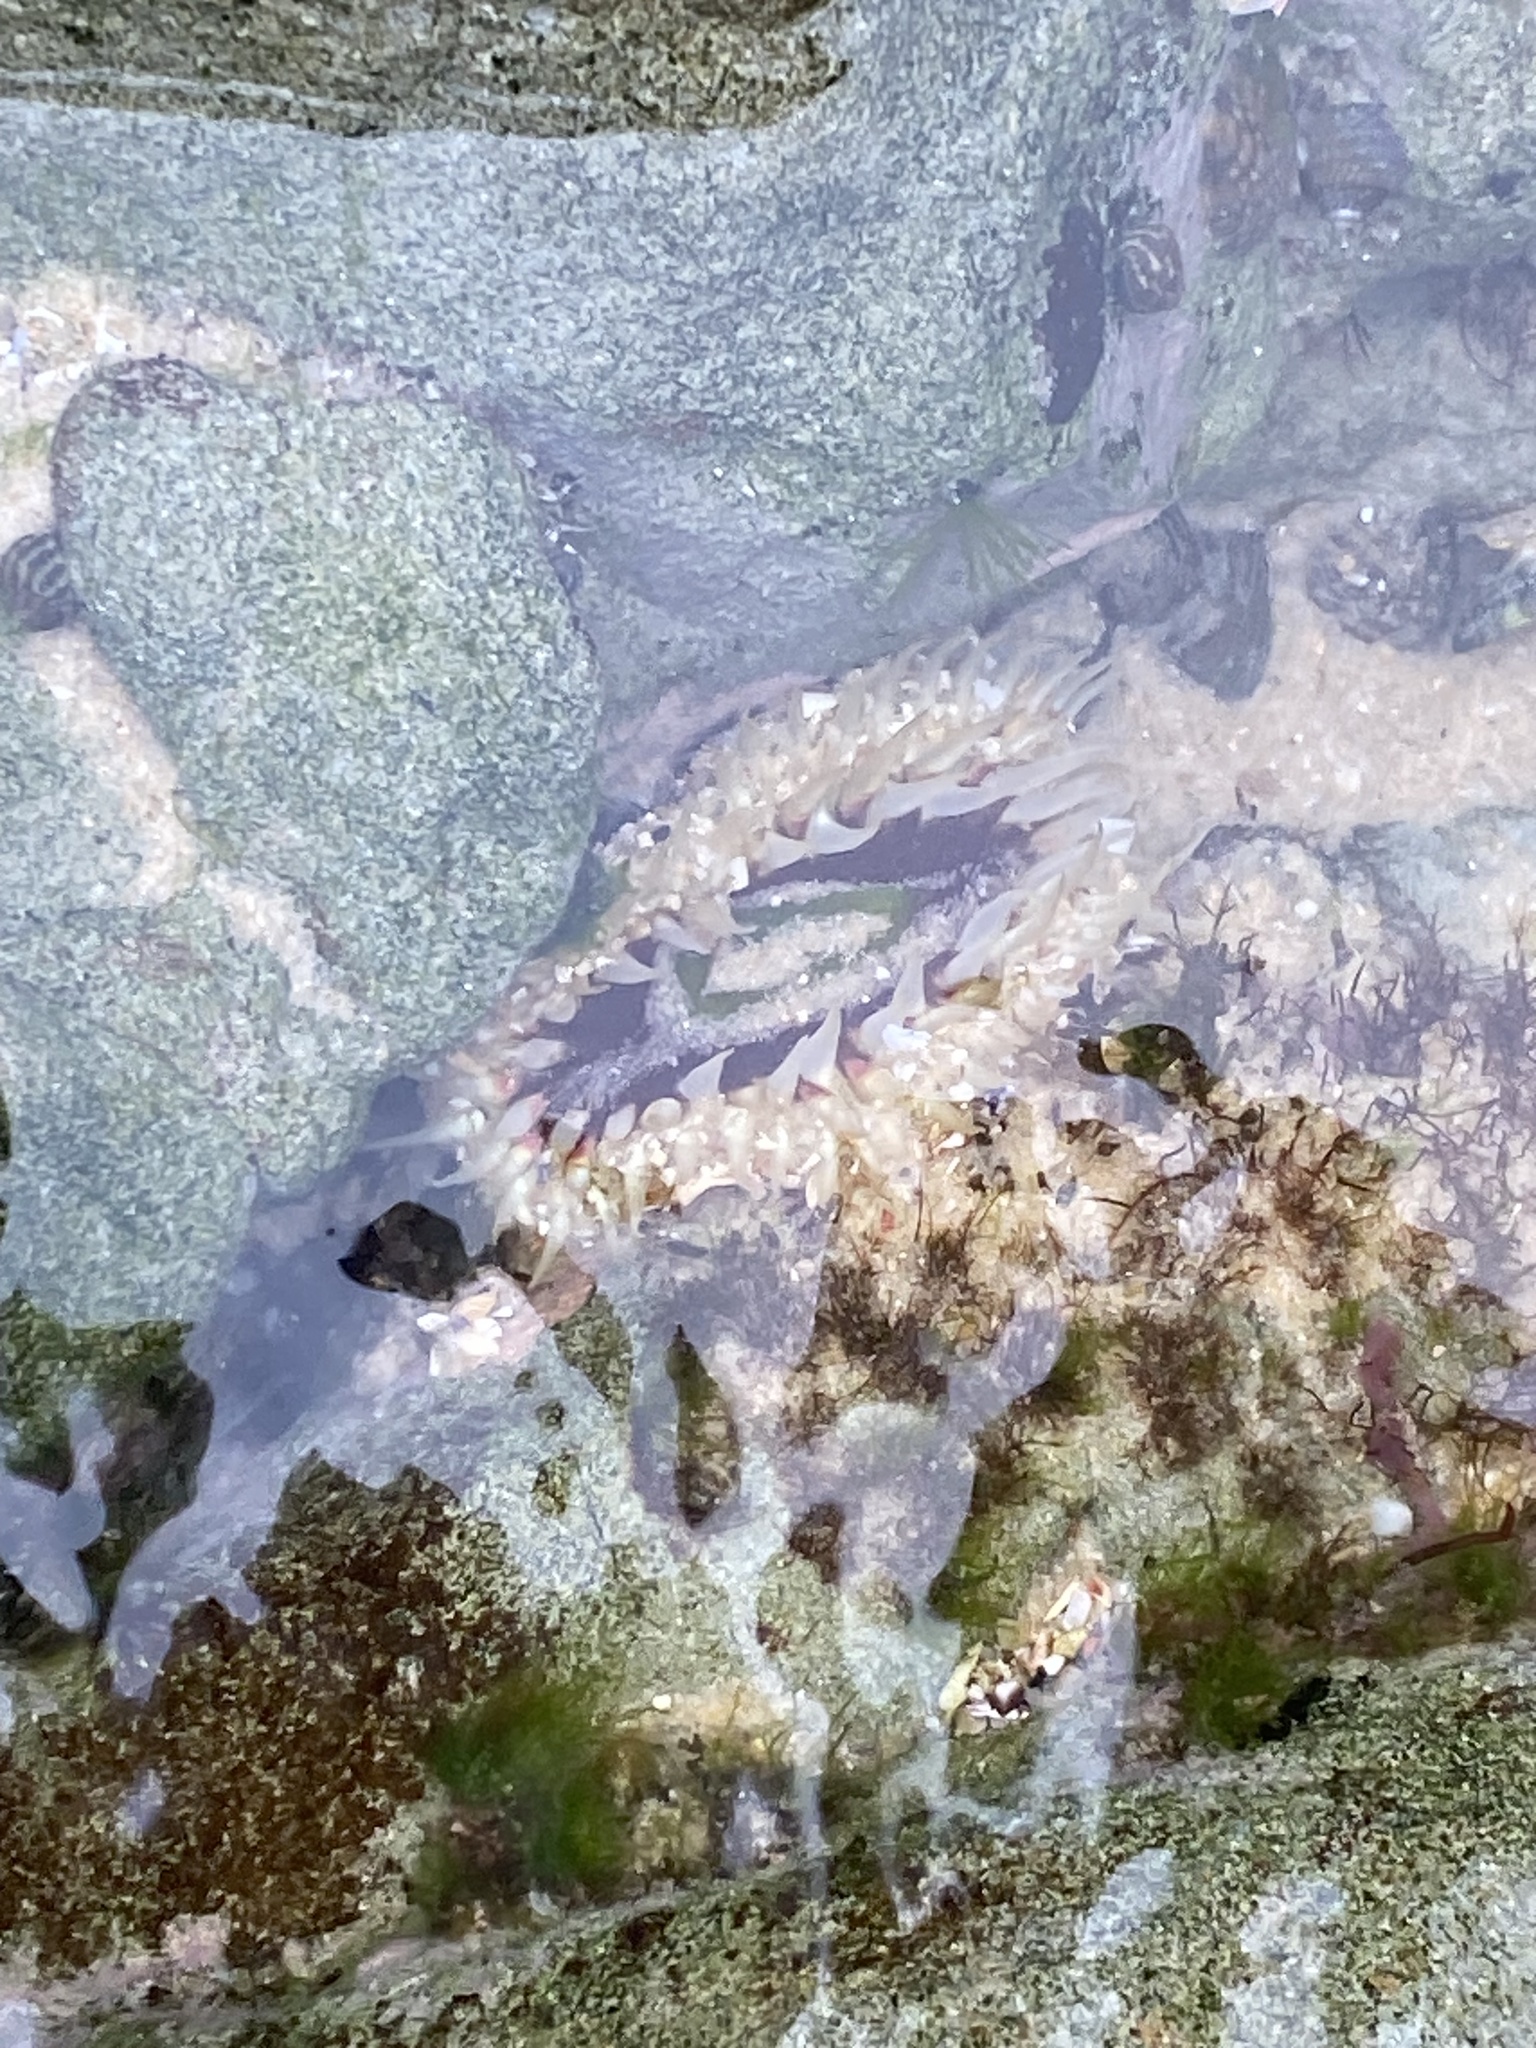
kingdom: Animalia
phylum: Cnidaria
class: Anthozoa
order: Actiniaria
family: Actiniidae
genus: Oulactis
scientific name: Oulactis muscosa
